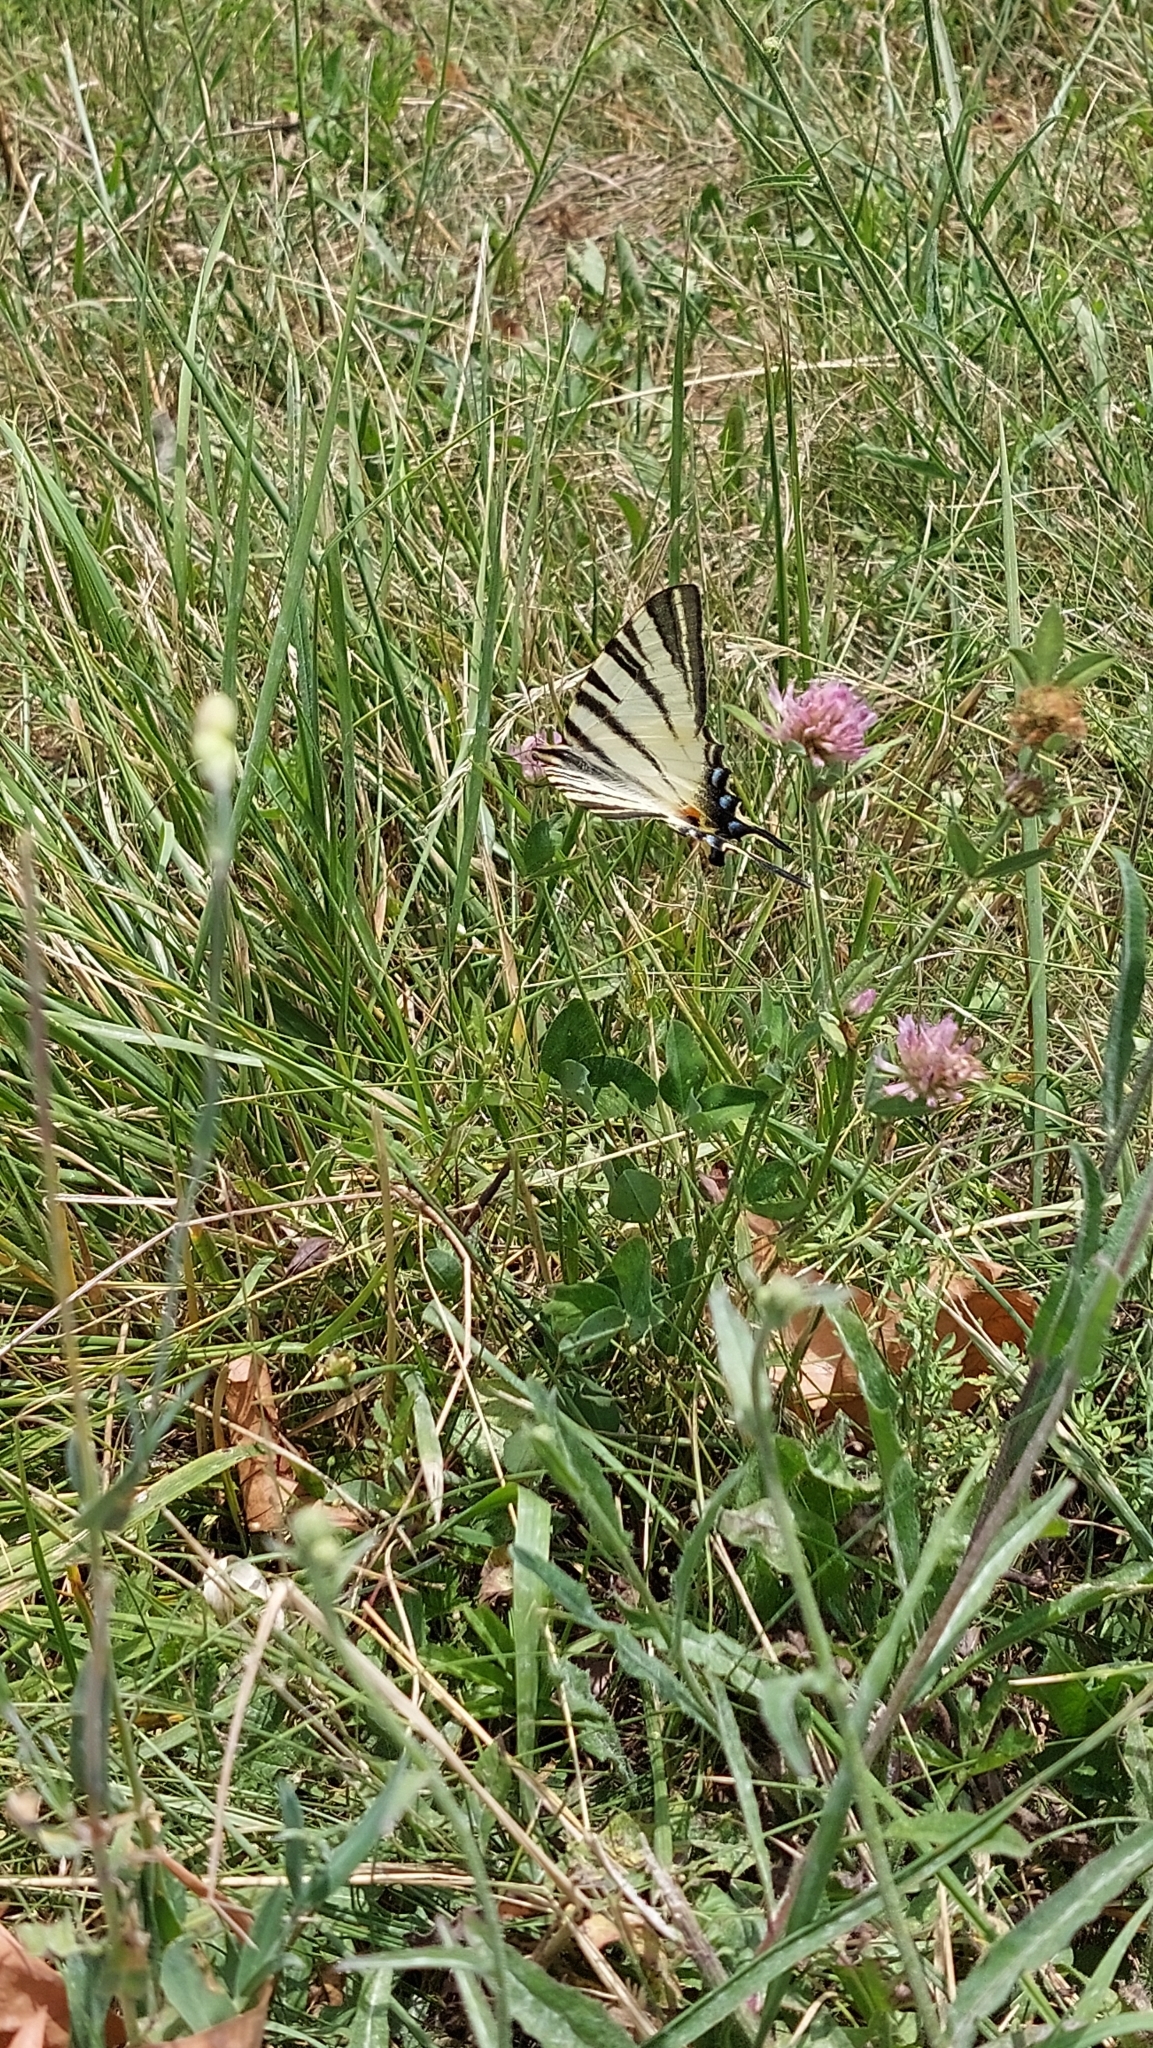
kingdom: Animalia
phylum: Arthropoda
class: Insecta
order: Lepidoptera
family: Papilionidae
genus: Iphiclides
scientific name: Iphiclides podalirius
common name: Scarce swallowtail
